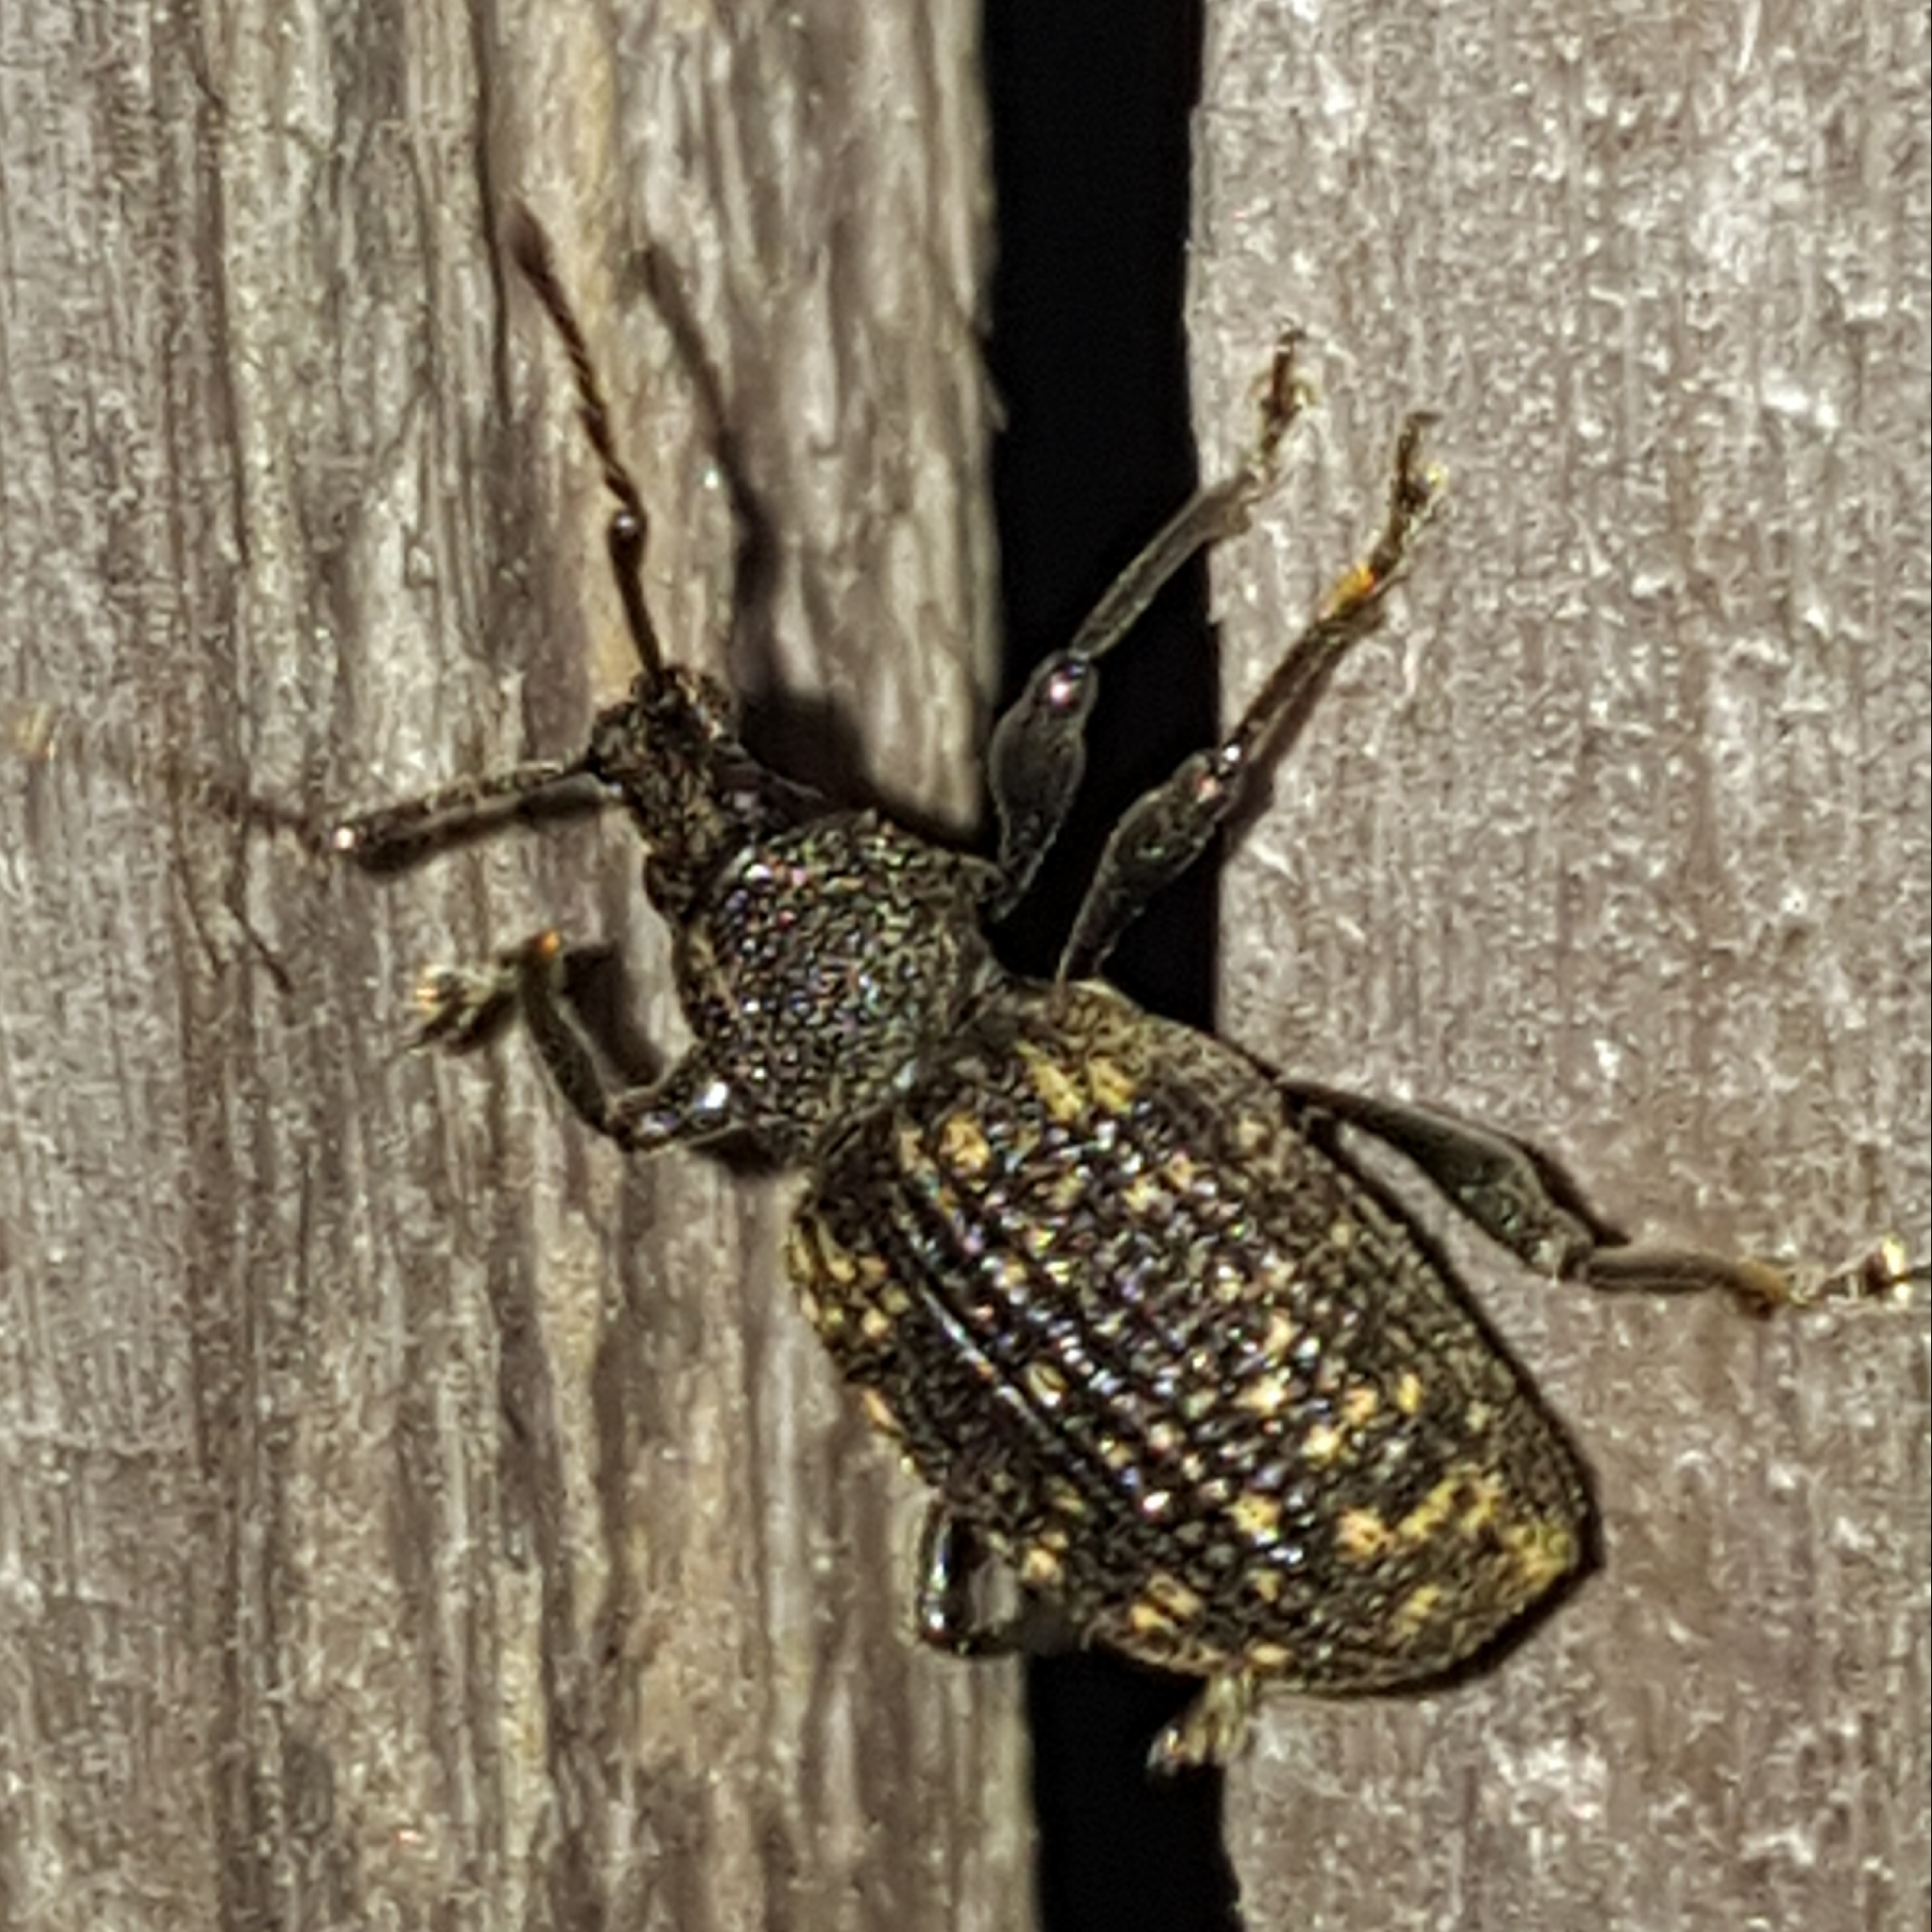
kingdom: Animalia
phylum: Arthropoda
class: Insecta
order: Coleoptera
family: Curculionidae
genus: Otiorhynchus
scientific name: Otiorhynchus sulcatus
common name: Black vine weevil
